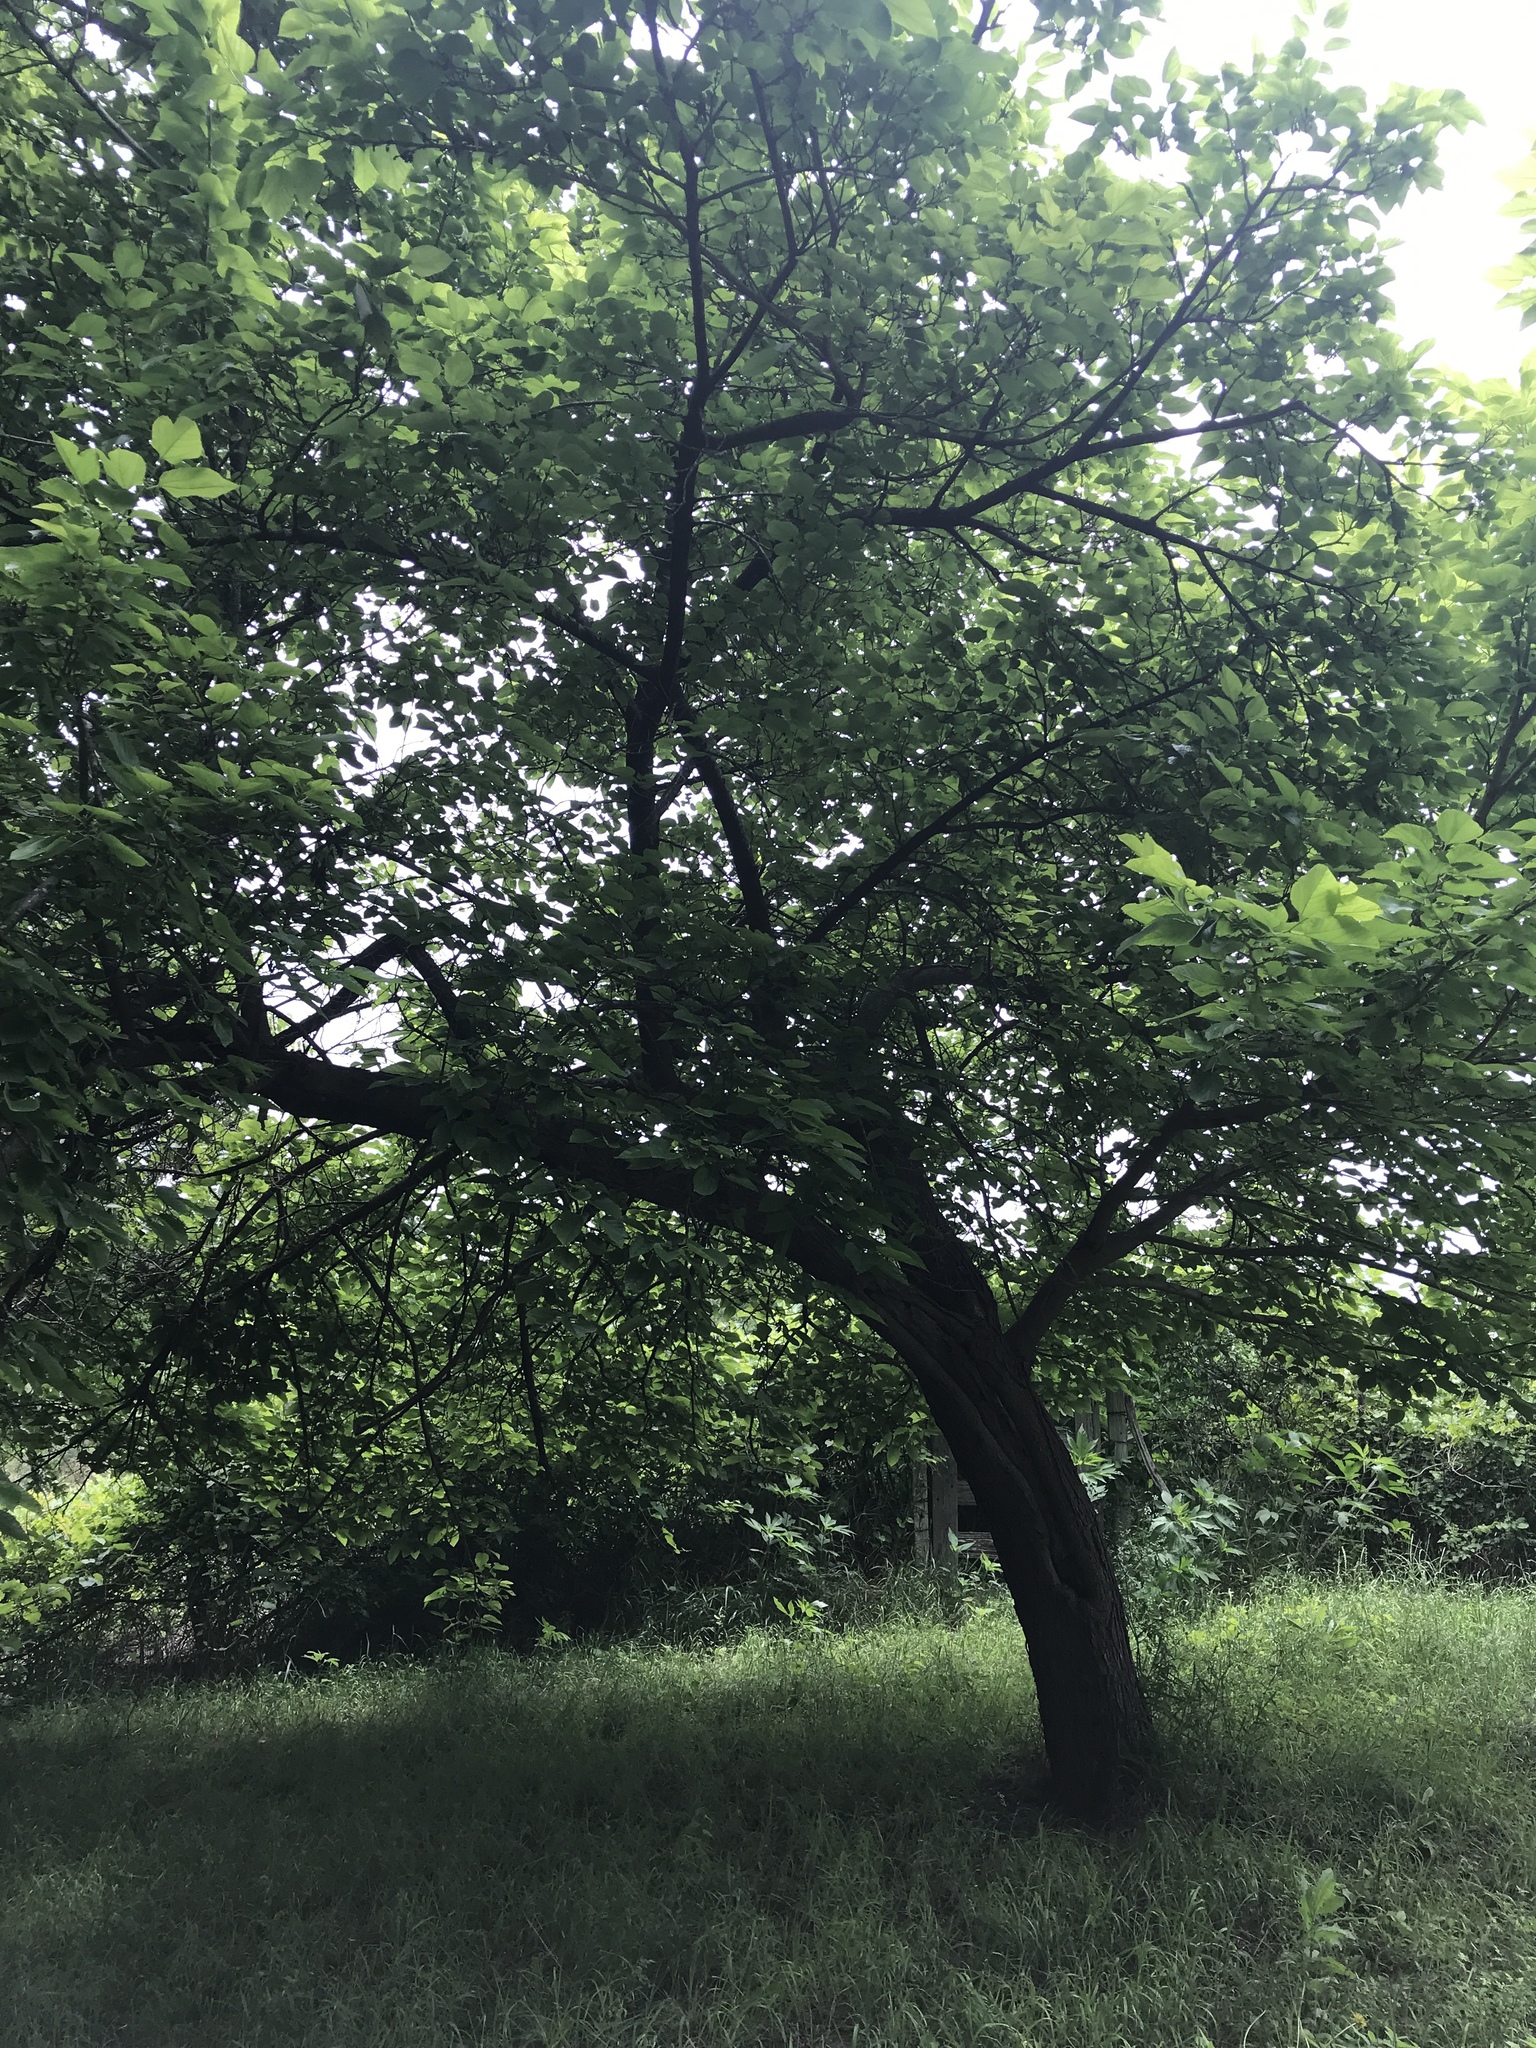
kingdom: Plantae
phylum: Tracheophyta
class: Magnoliopsida
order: Rosales
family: Moraceae
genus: Morus
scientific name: Morus rubra
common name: Red mulberry
